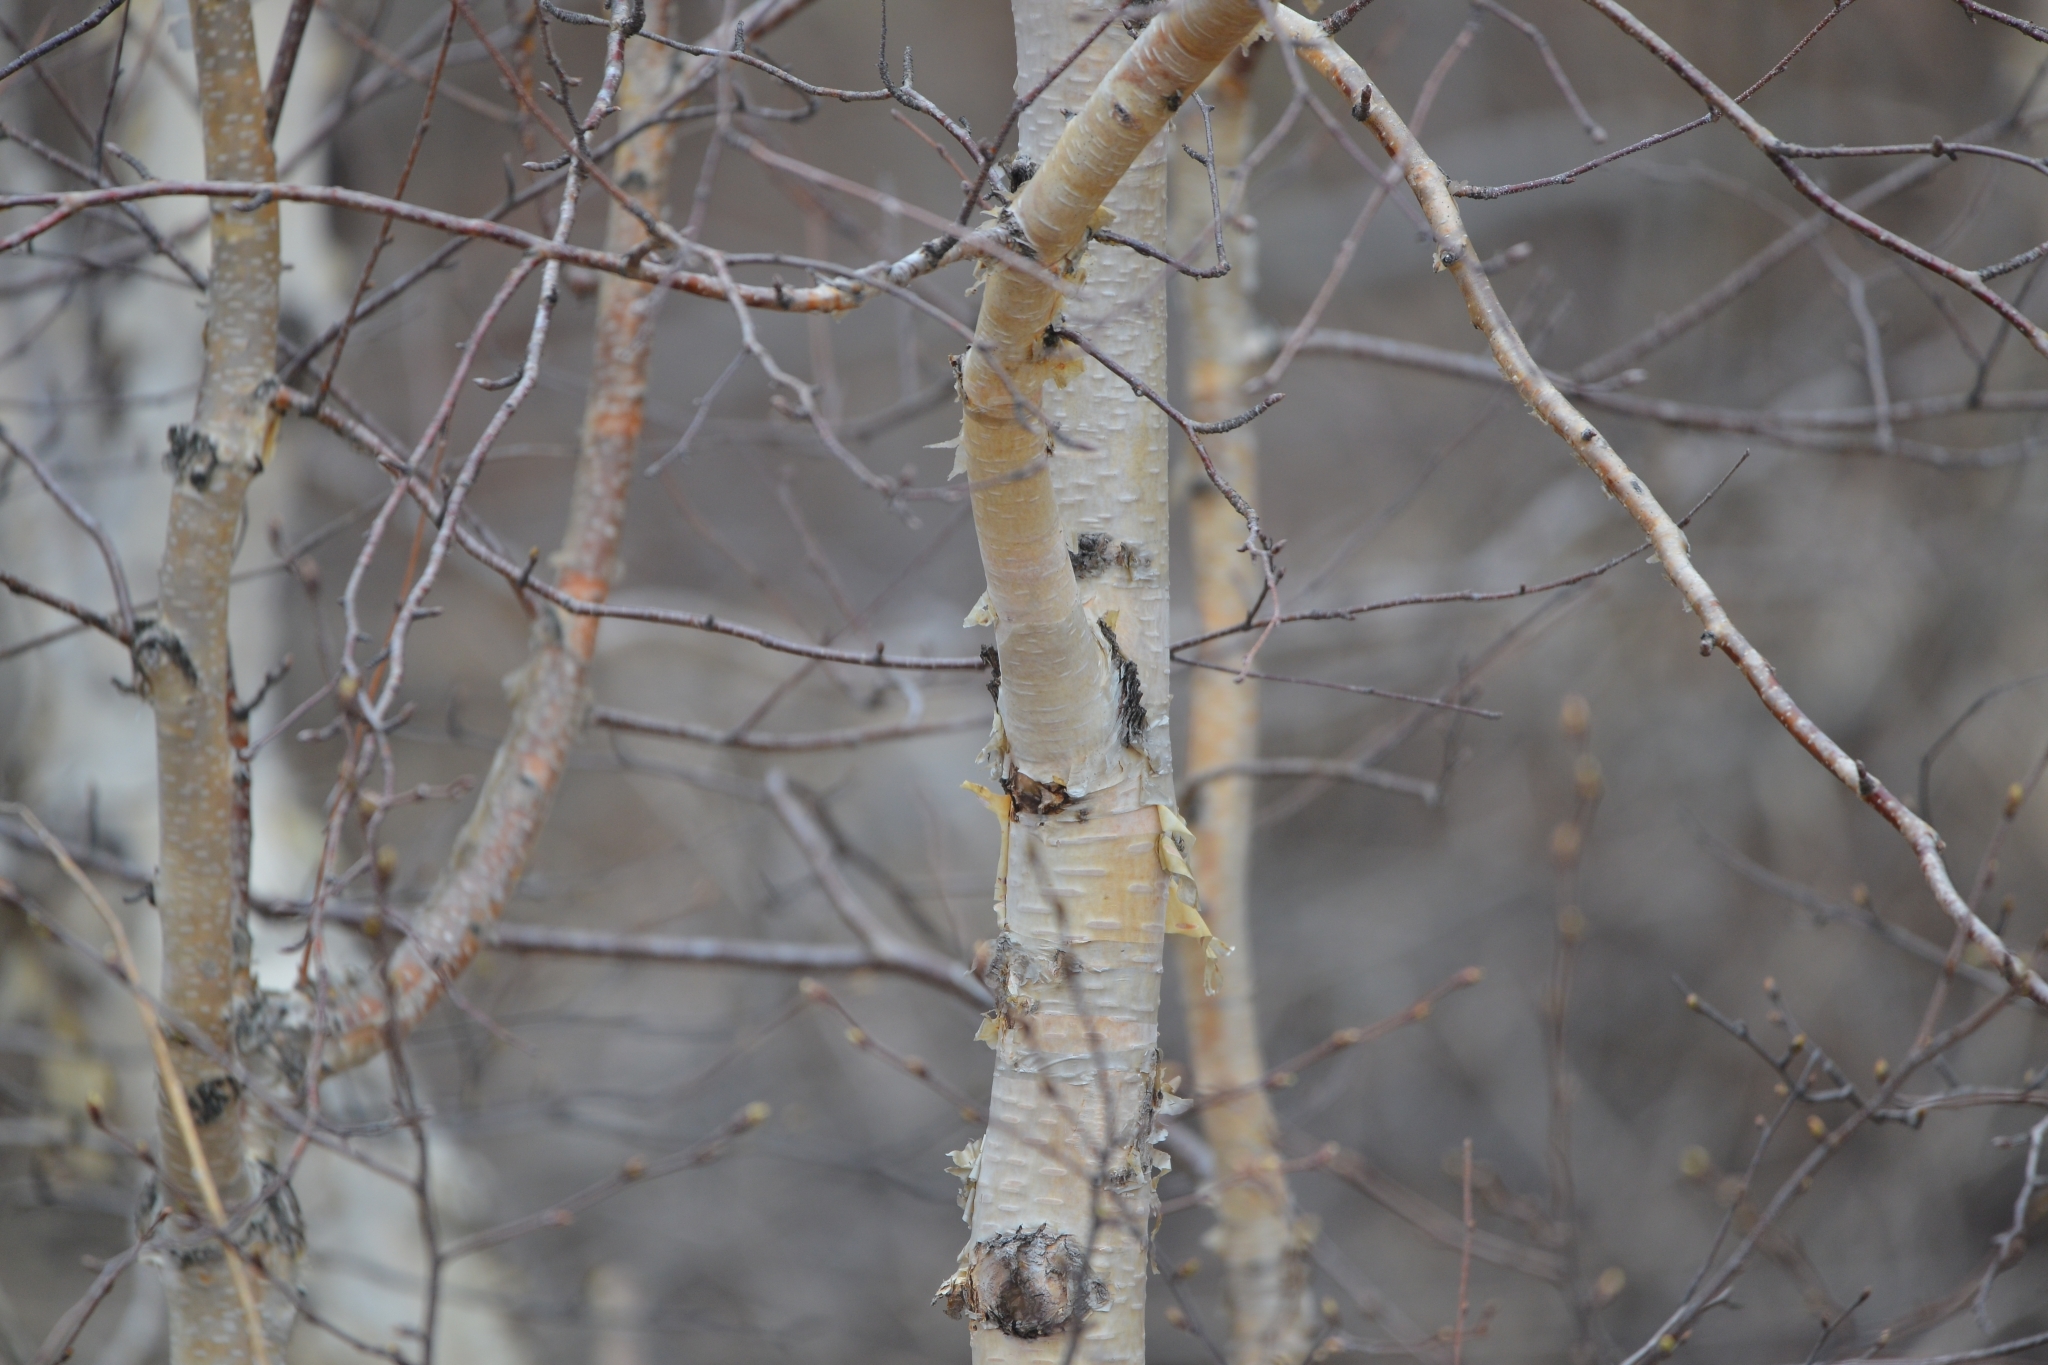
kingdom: Plantae
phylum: Tracheophyta
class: Magnoliopsida
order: Fagales
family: Betulaceae
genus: Betula
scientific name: Betula pendula
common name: Silver birch
